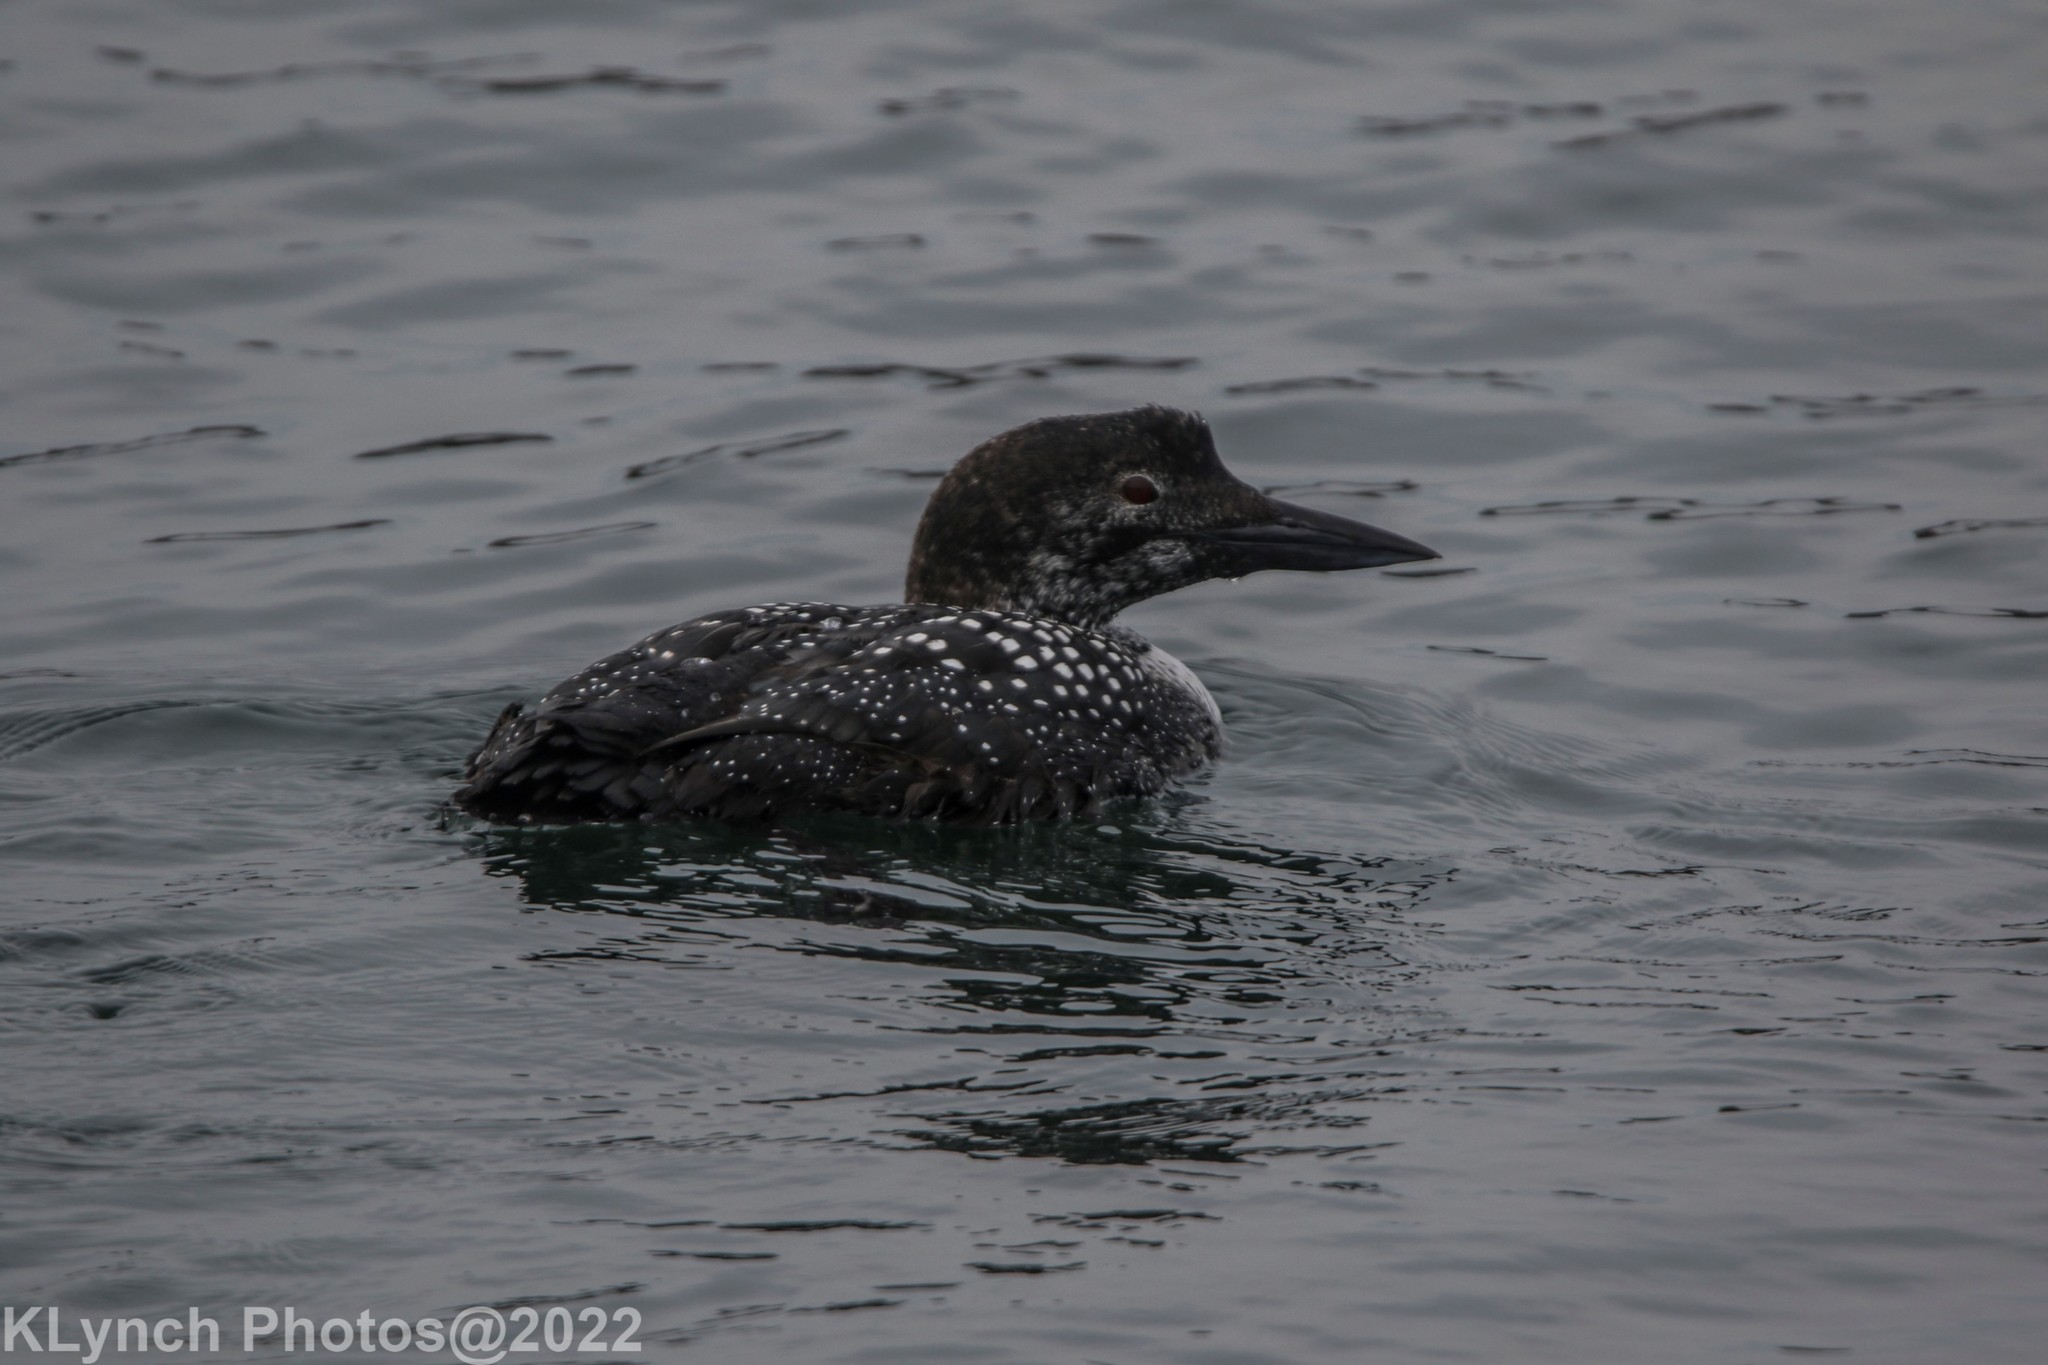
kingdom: Animalia
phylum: Chordata
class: Aves
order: Gaviiformes
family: Gaviidae
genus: Gavia
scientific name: Gavia immer
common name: Common loon
